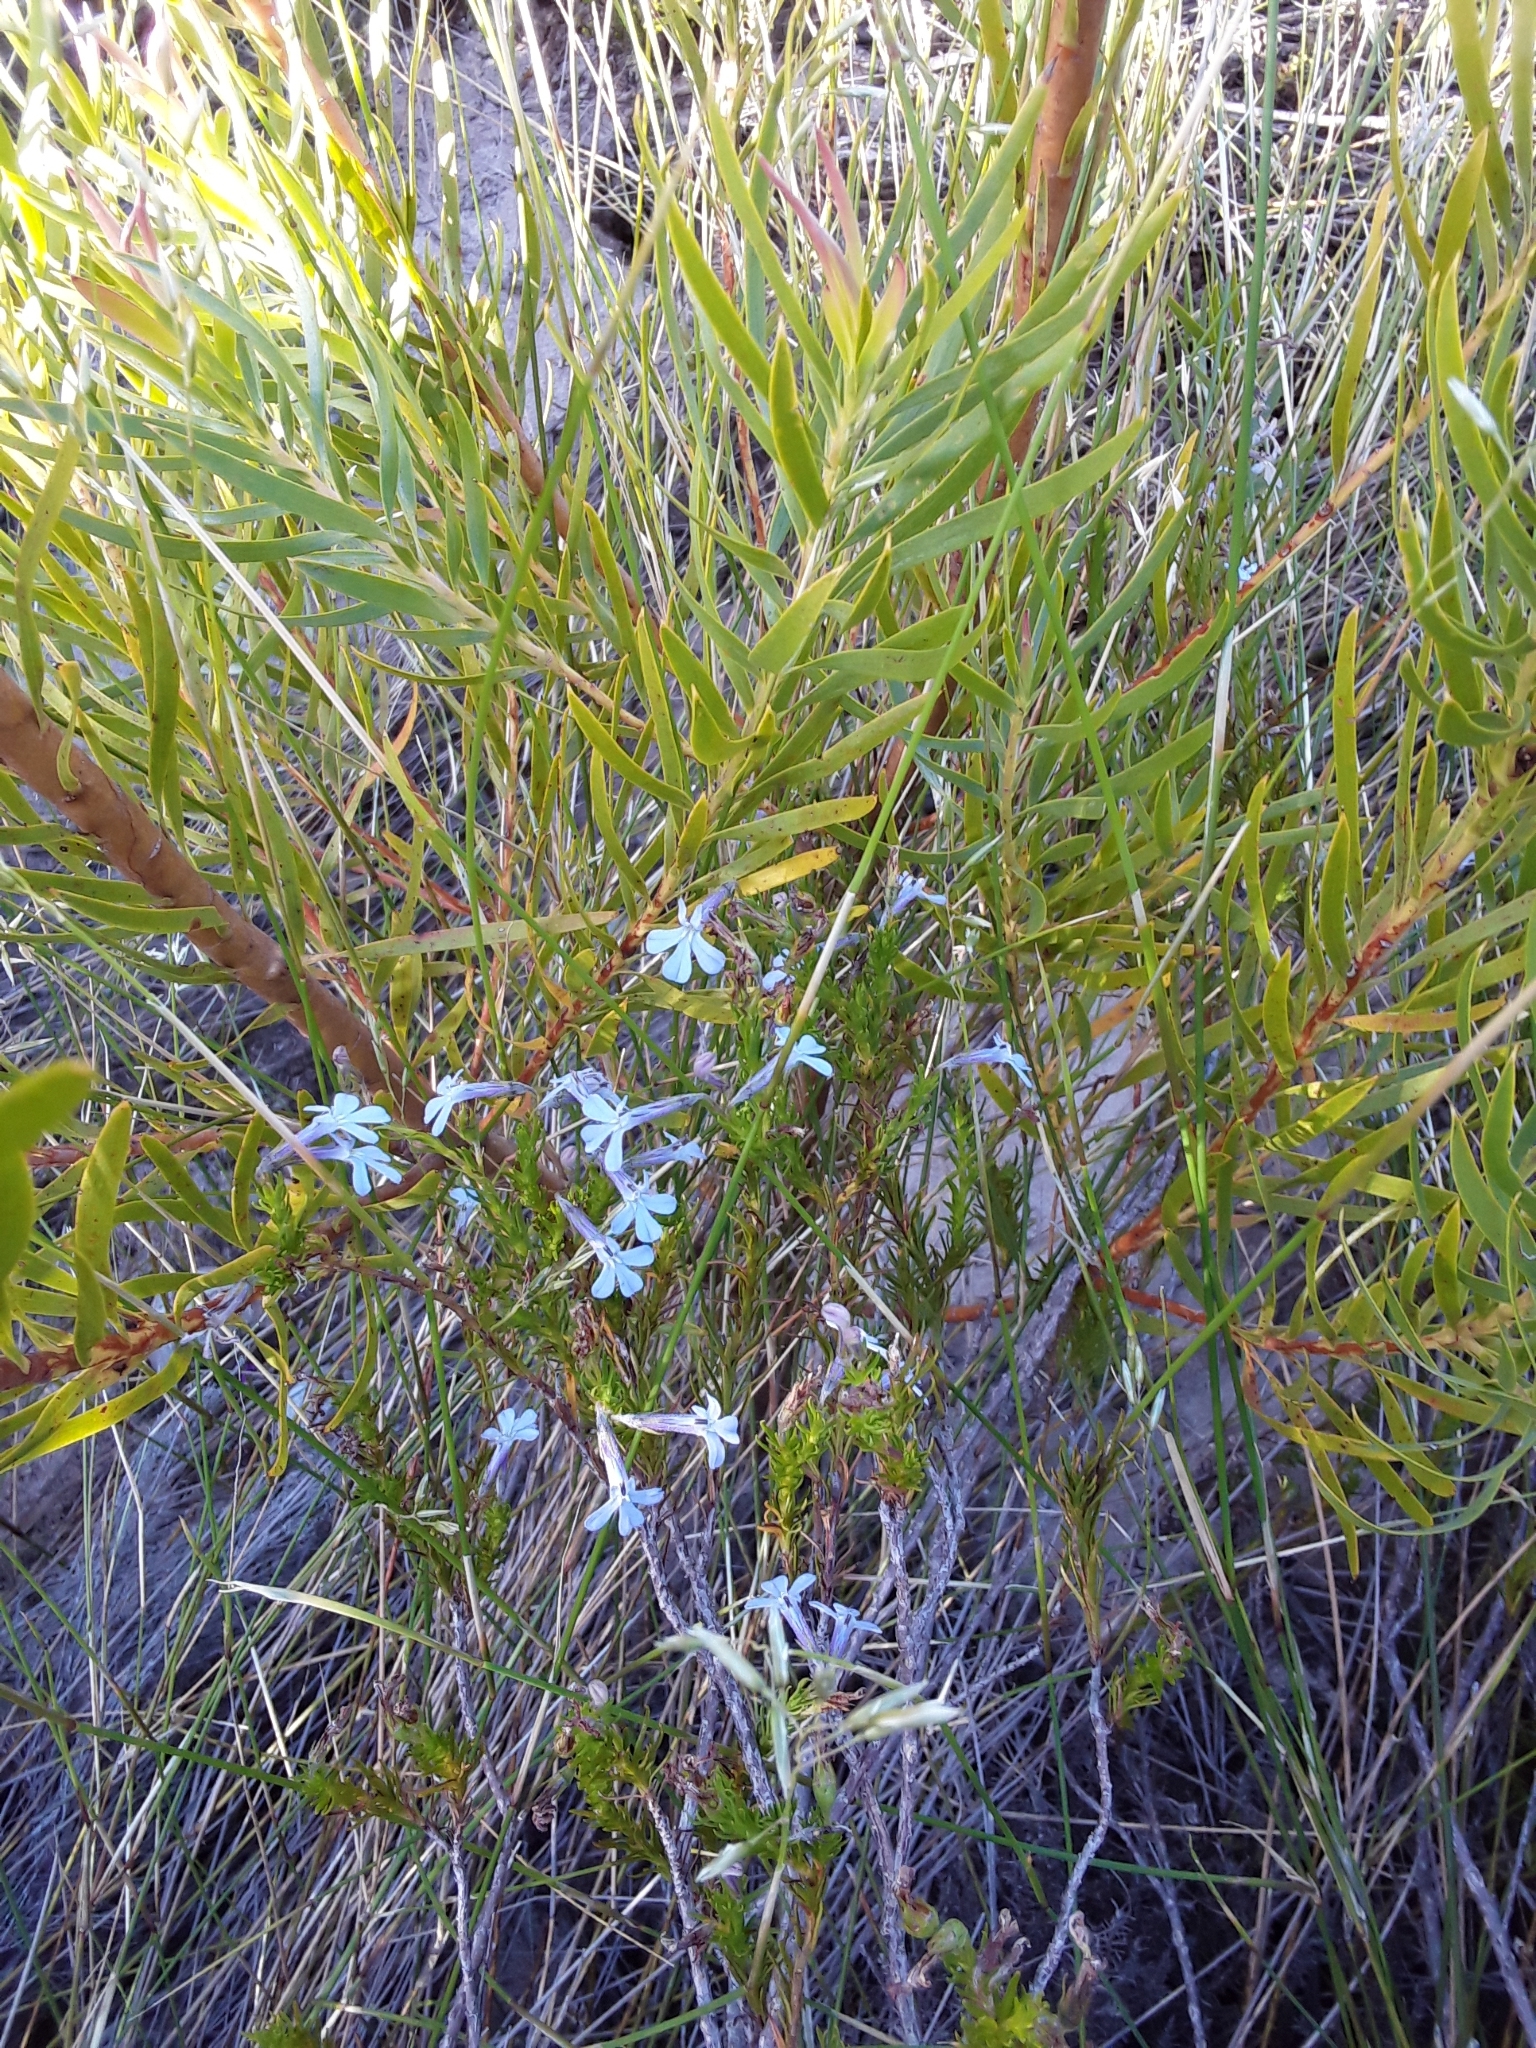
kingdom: Plantae
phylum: Tracheophyta
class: Magnoliopsida
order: Asterales
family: Campanulaceae
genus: Lobelia
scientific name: Lobelia pinifolia
